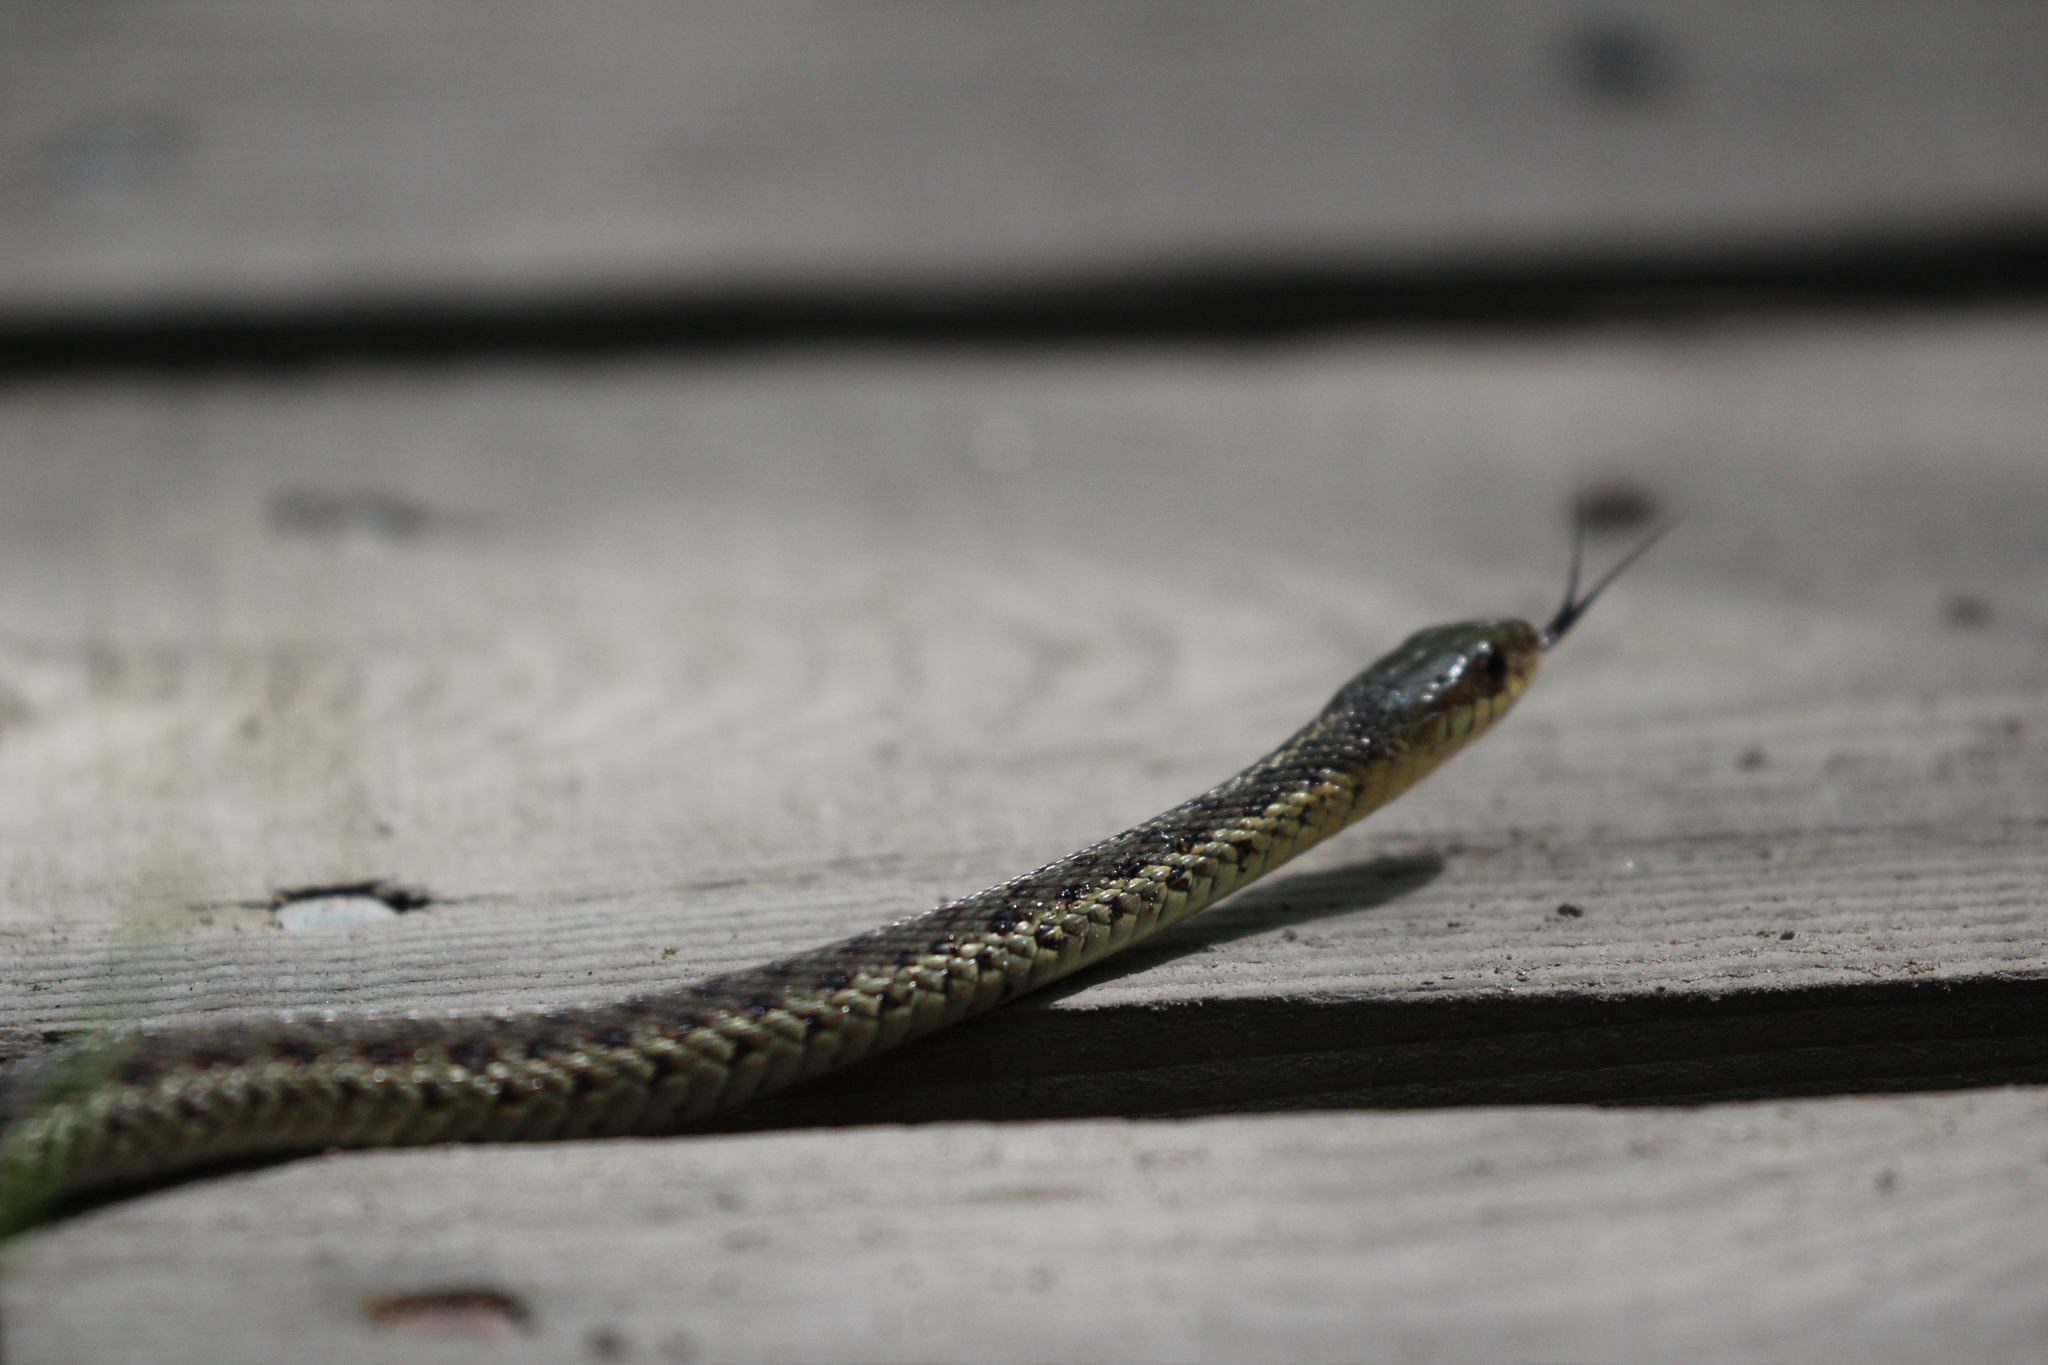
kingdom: Animalia
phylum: Chordata
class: Squamata
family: Colubridae
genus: Thamnophis
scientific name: Thamnophis sirtalis
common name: Common garter snake
